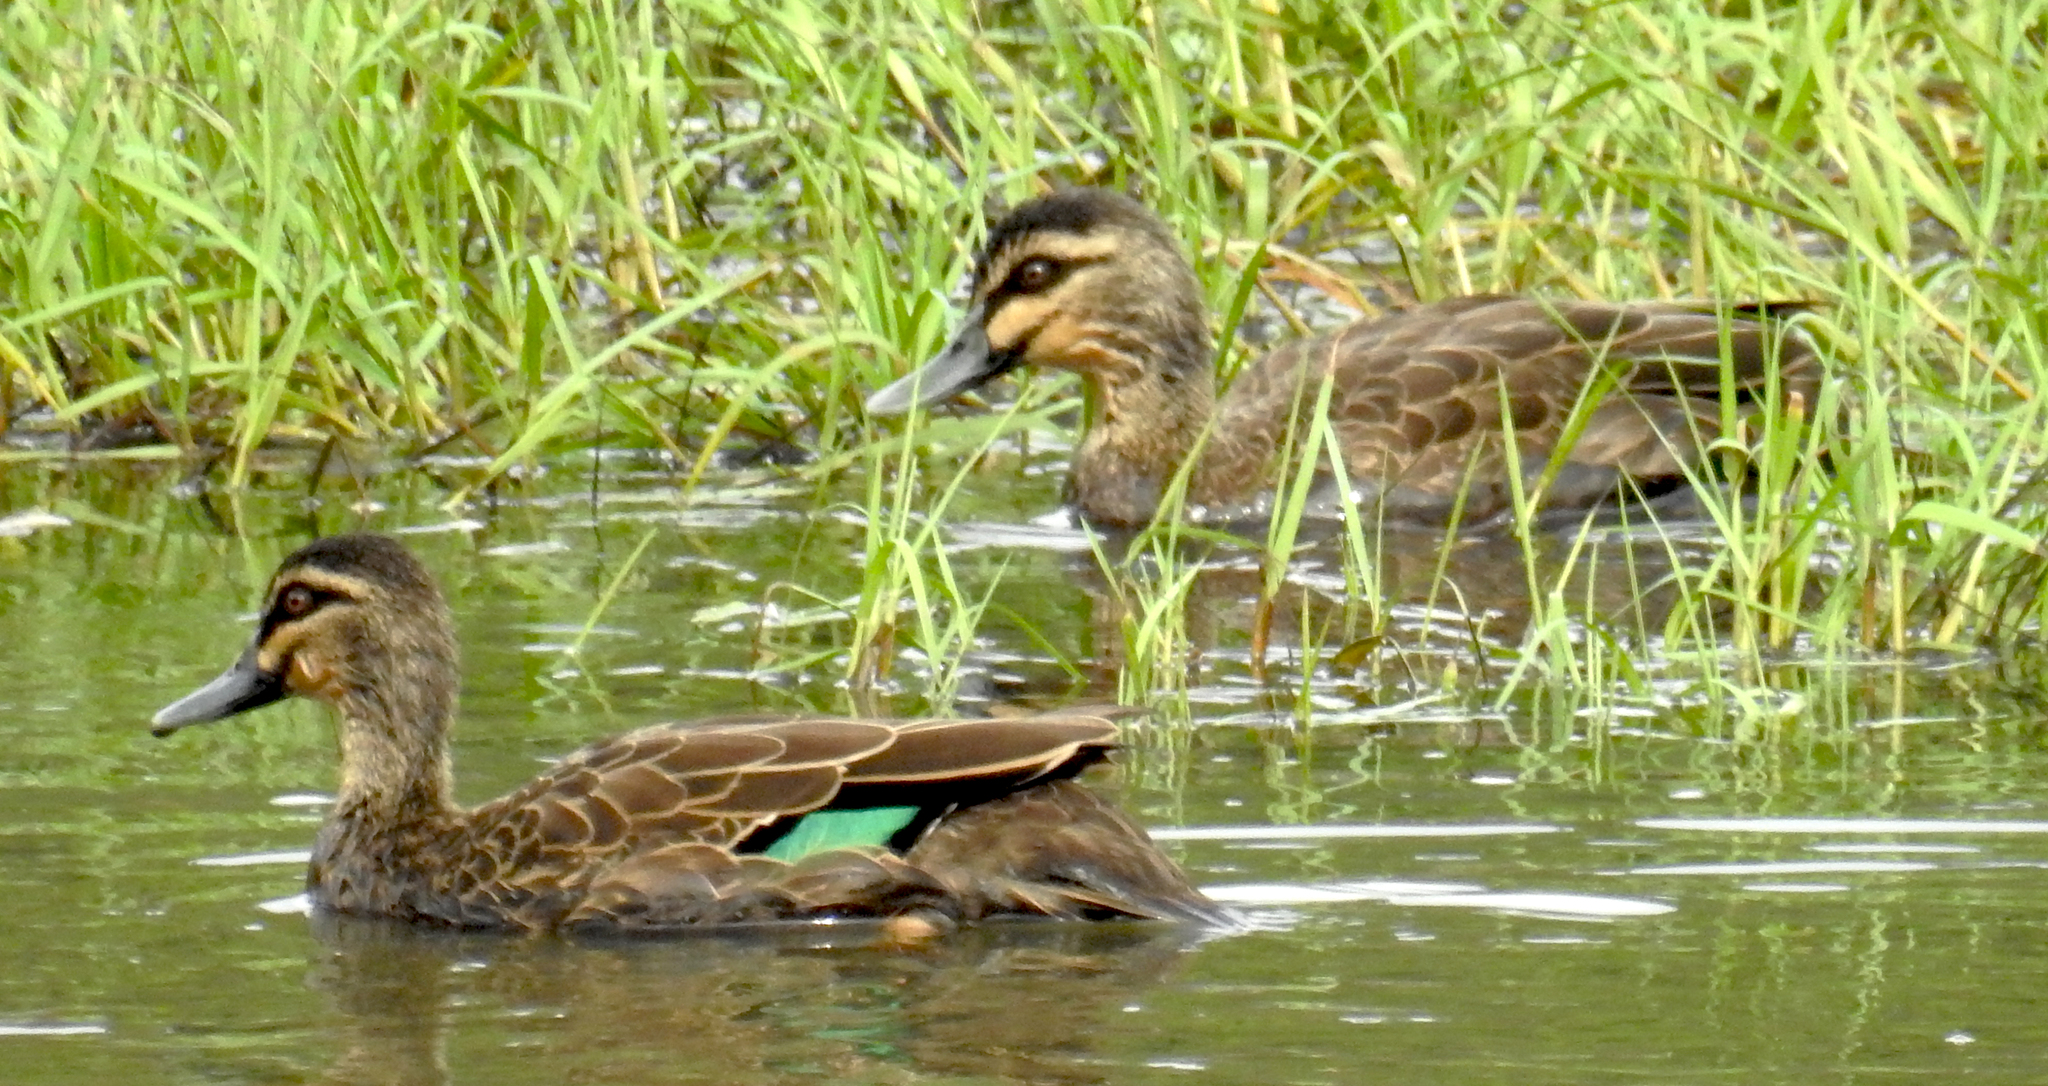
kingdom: Animalia
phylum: Chordata
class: Aves
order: Anseriformes
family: Anatidae
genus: Anas
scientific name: Anas superciliosa
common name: Pacific black duck
